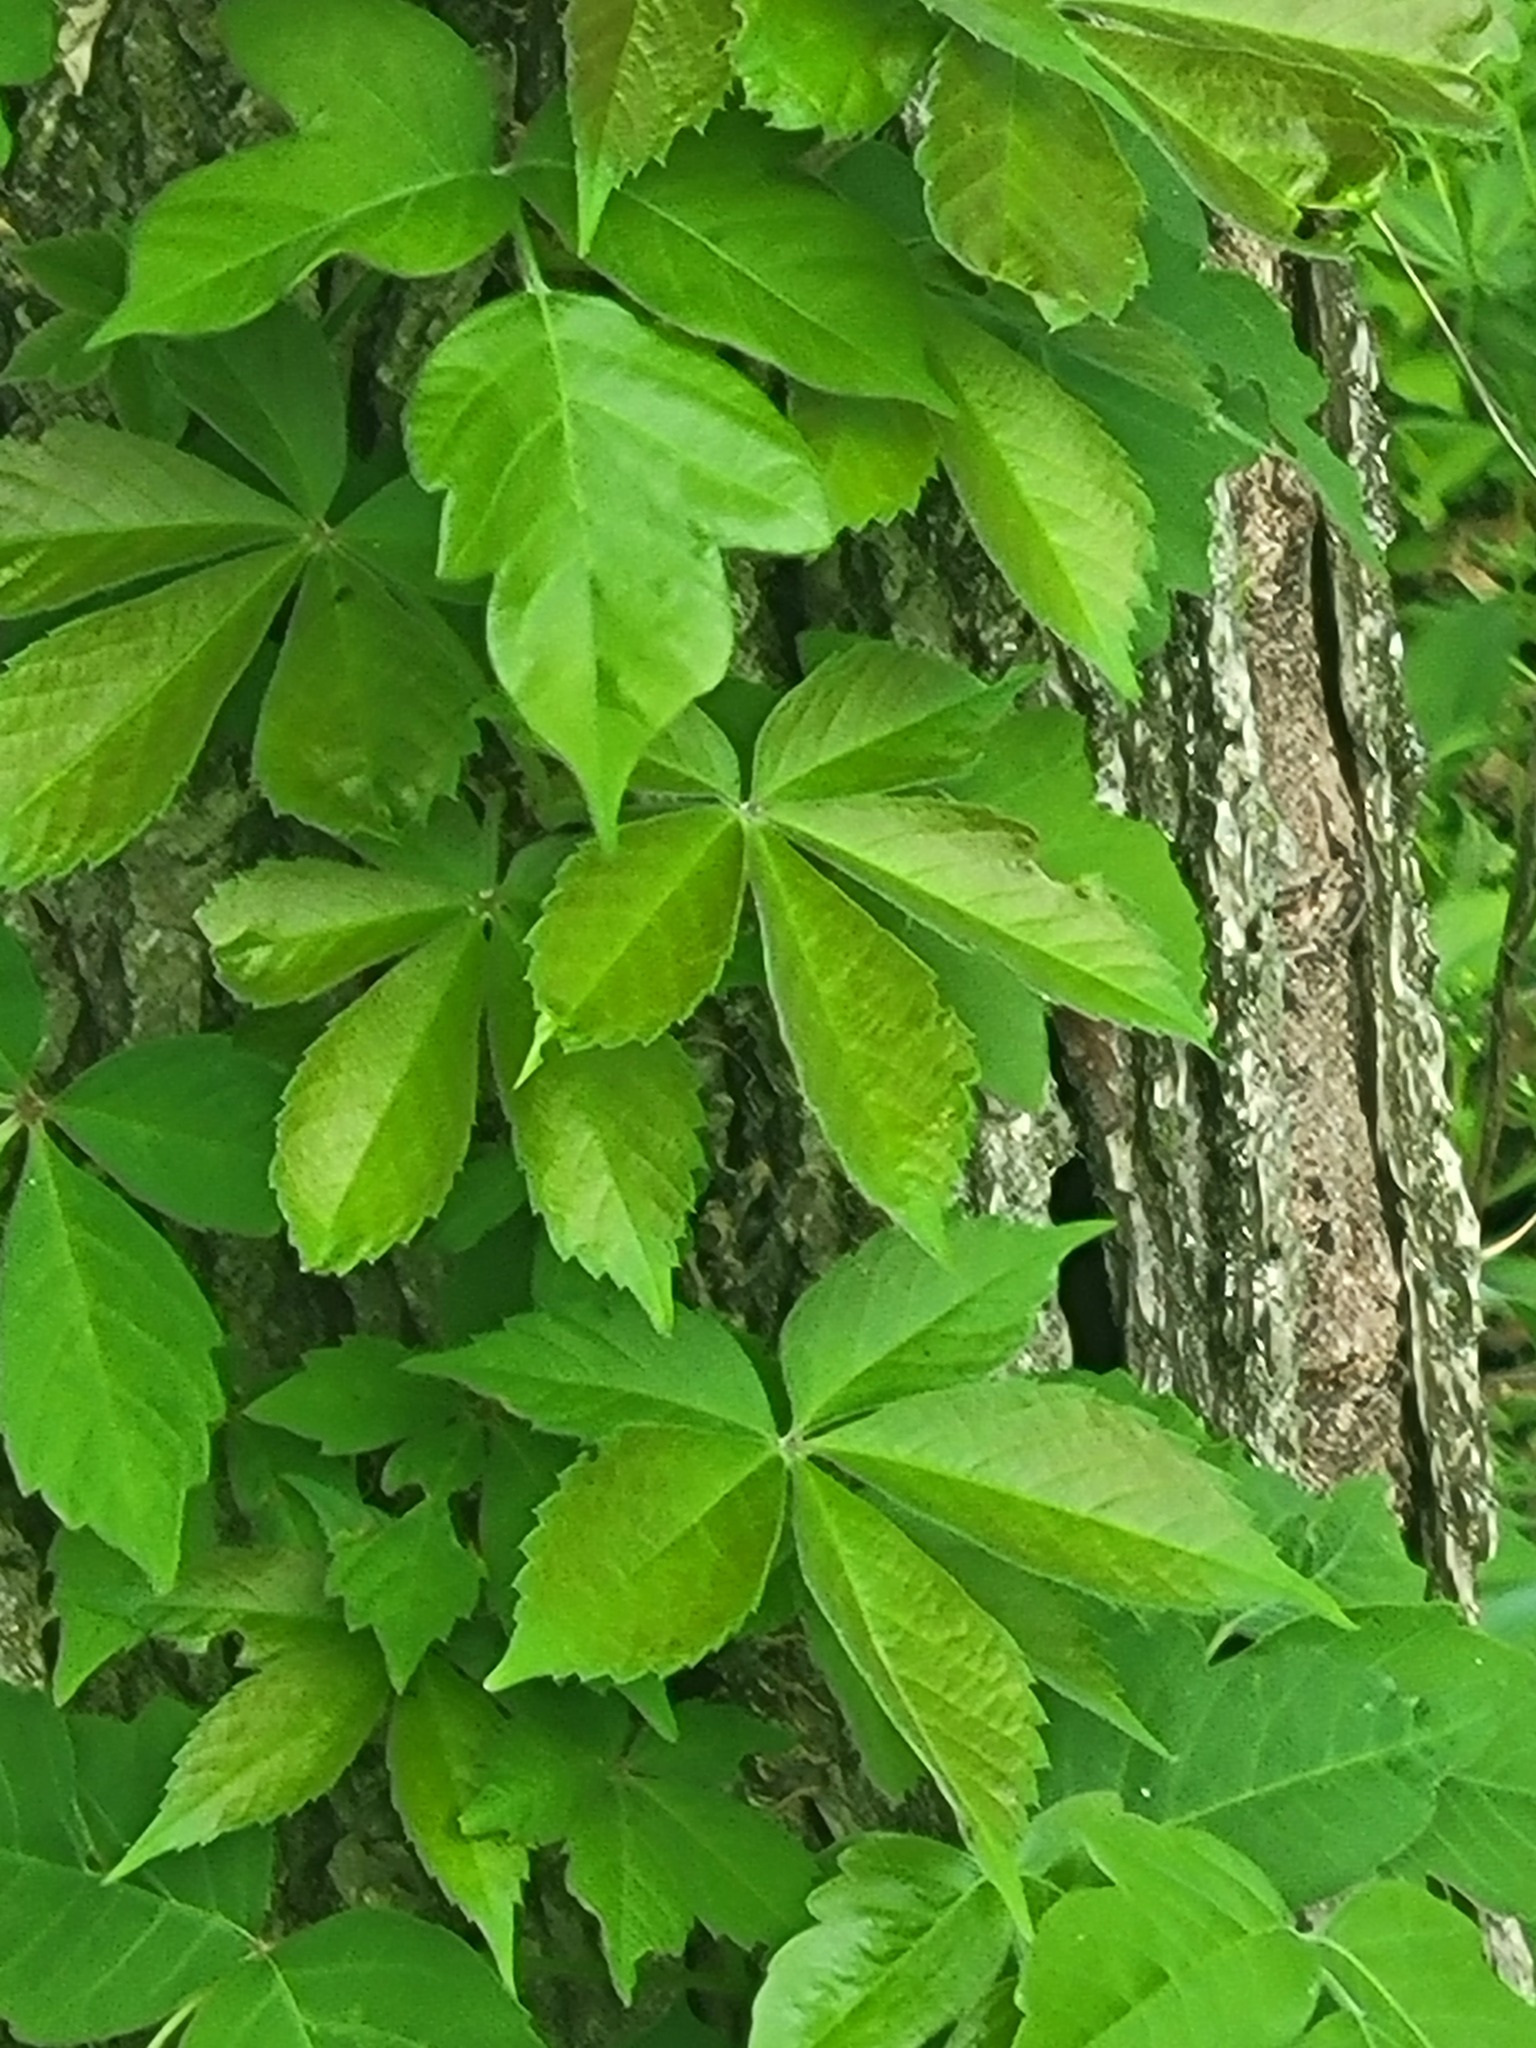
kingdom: Plantae
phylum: Tracheophyta
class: Magnoliopsida
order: Vitales
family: Vitaceae
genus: Parthenocissus
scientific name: Parthenocissus quinquefolia
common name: Virginia-creeper
